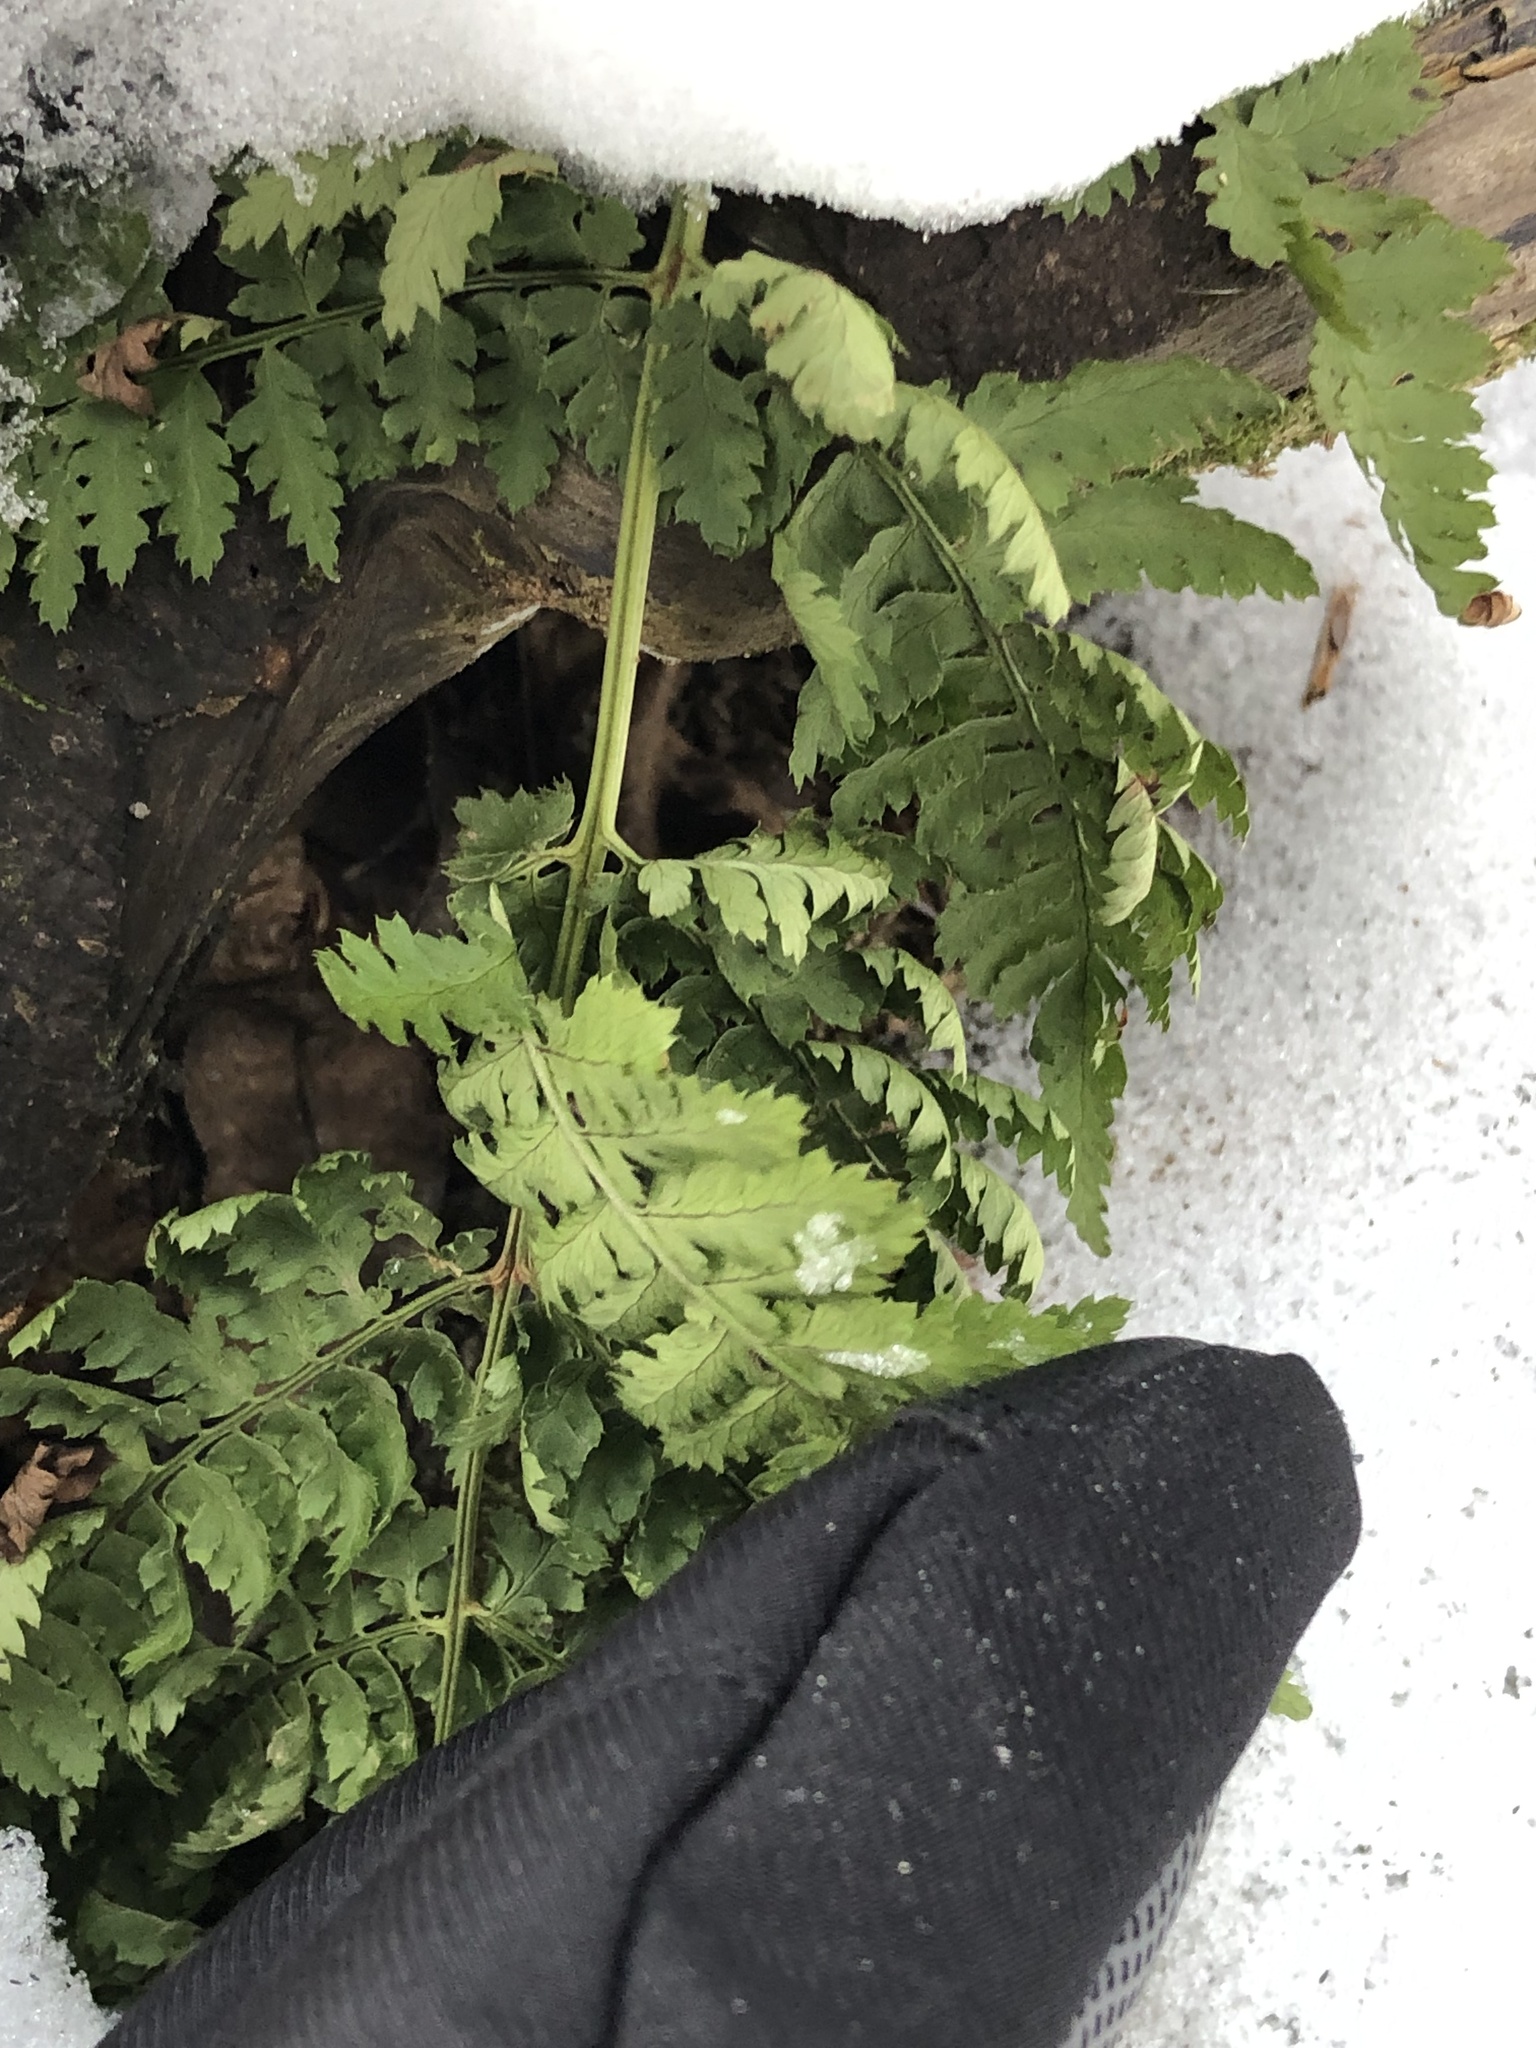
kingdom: Plantae
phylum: Tracheophyta
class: Polypodiopsida
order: Polypodiales
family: Dryopteridaceae
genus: Dryopteris
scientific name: Dryopteris intermedia
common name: Evergreen wood fern
